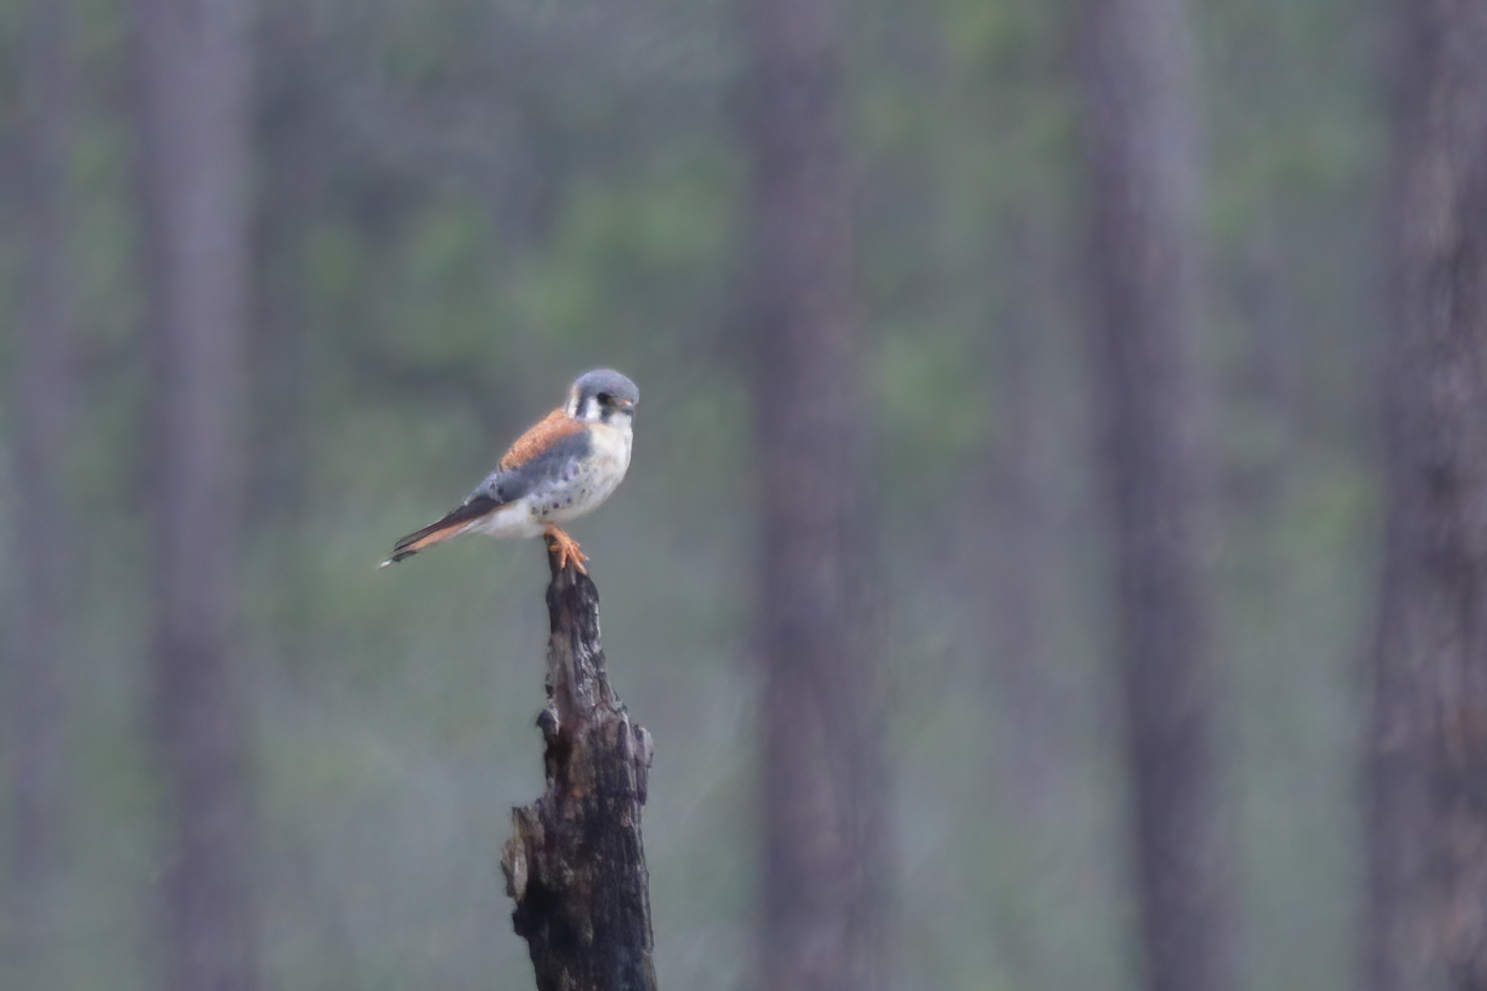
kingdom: Animalia
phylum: Chordata
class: Aves
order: Falconiformes
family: Falconidae
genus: Falco
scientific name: Falco sparverius
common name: American kestrel
